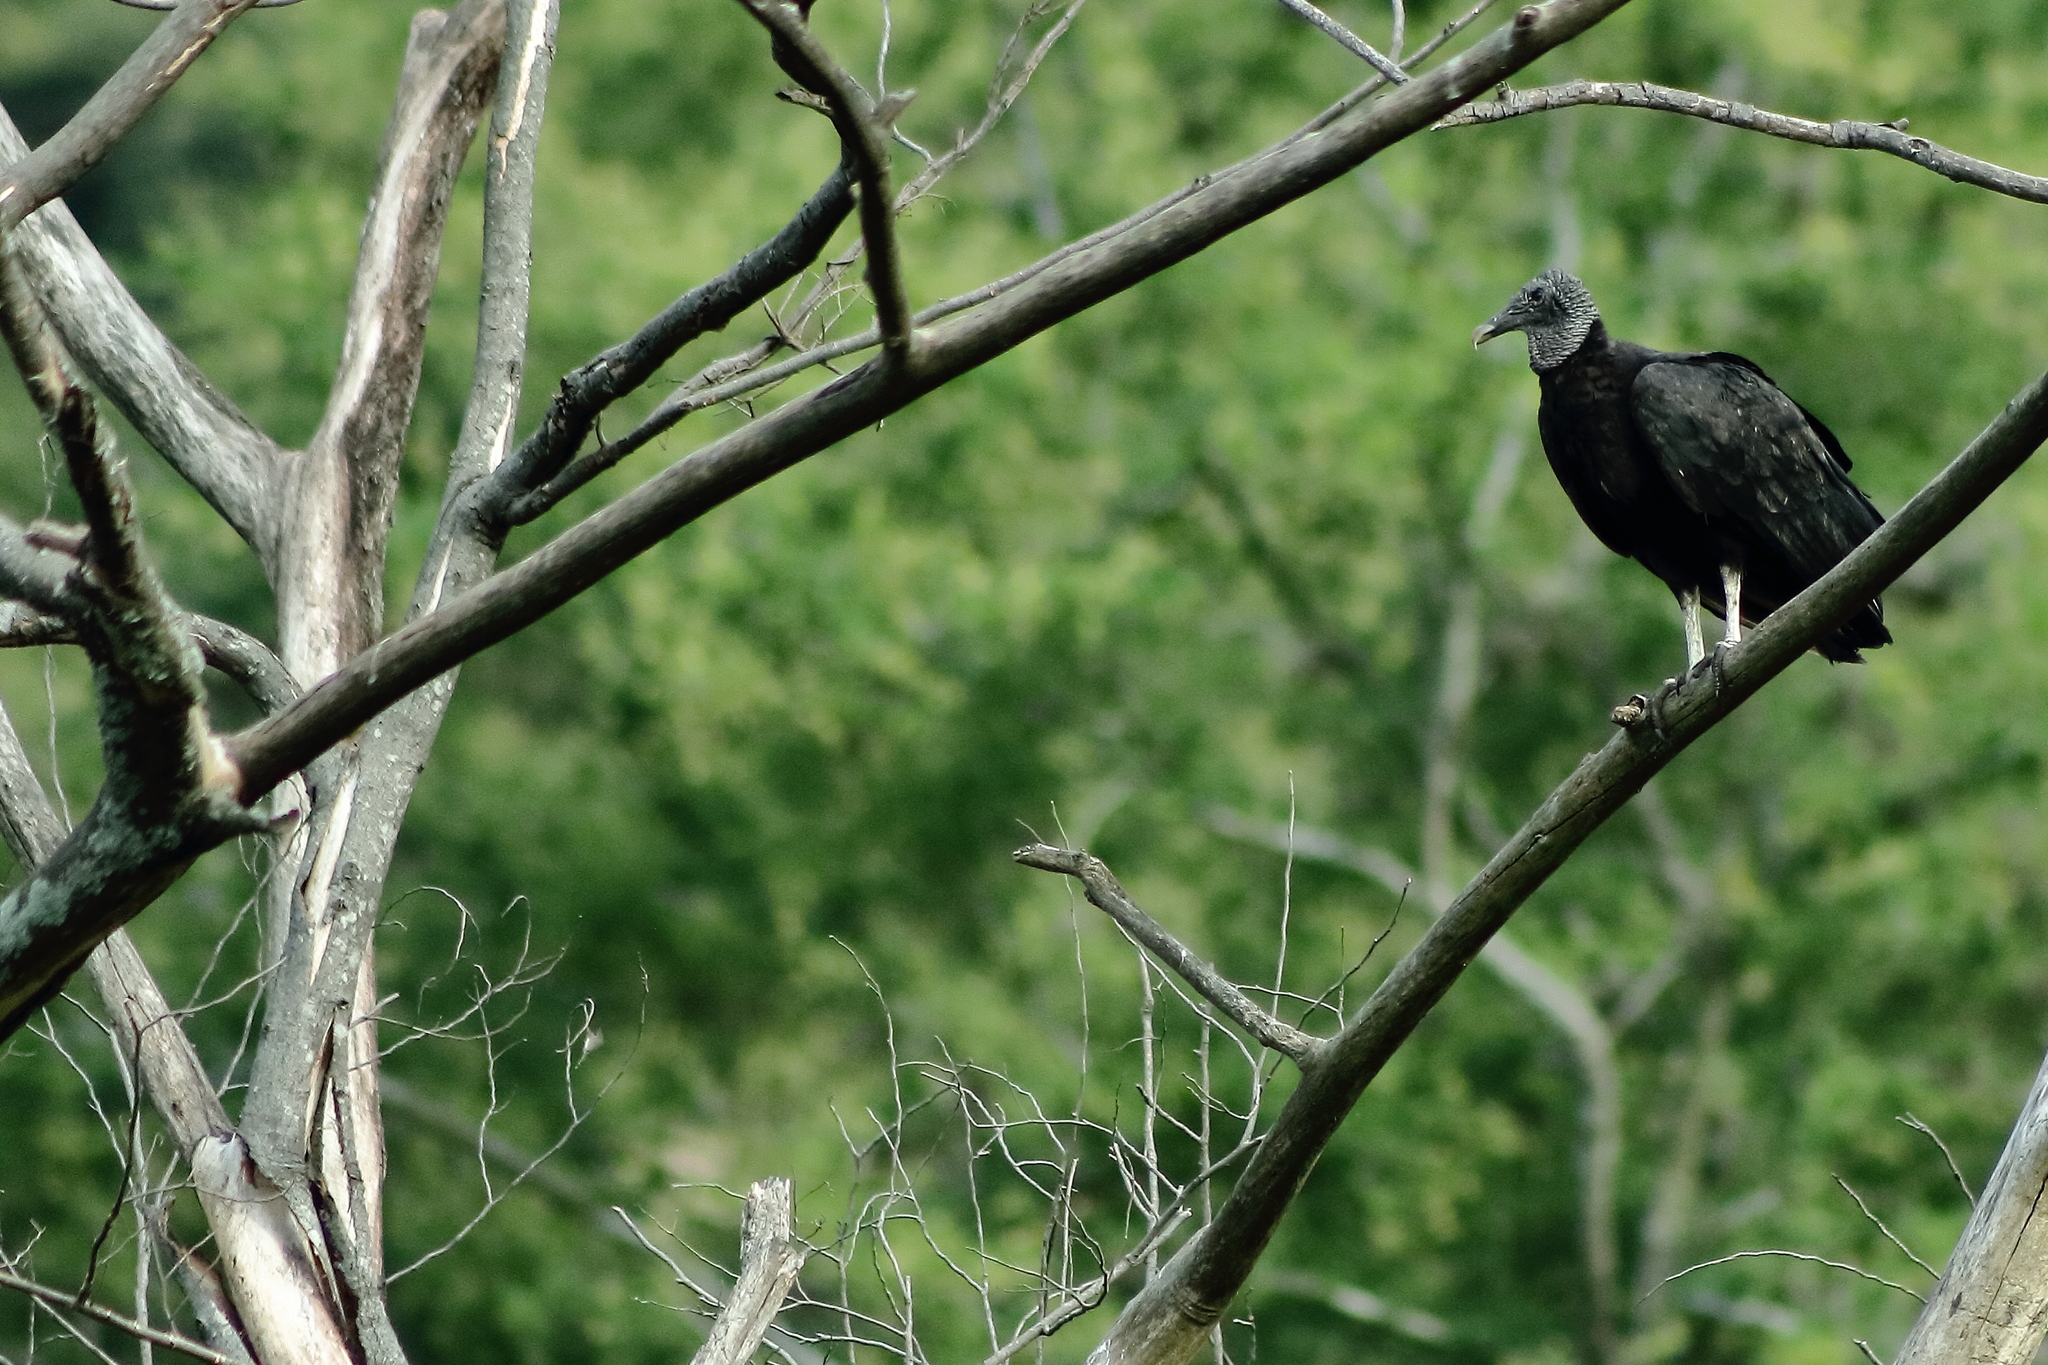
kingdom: Animalia
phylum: Chordata
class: Aves
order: Accipitriformes
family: Cathartidae
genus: Coragyps
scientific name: Coragyps atratus
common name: Black vulture
